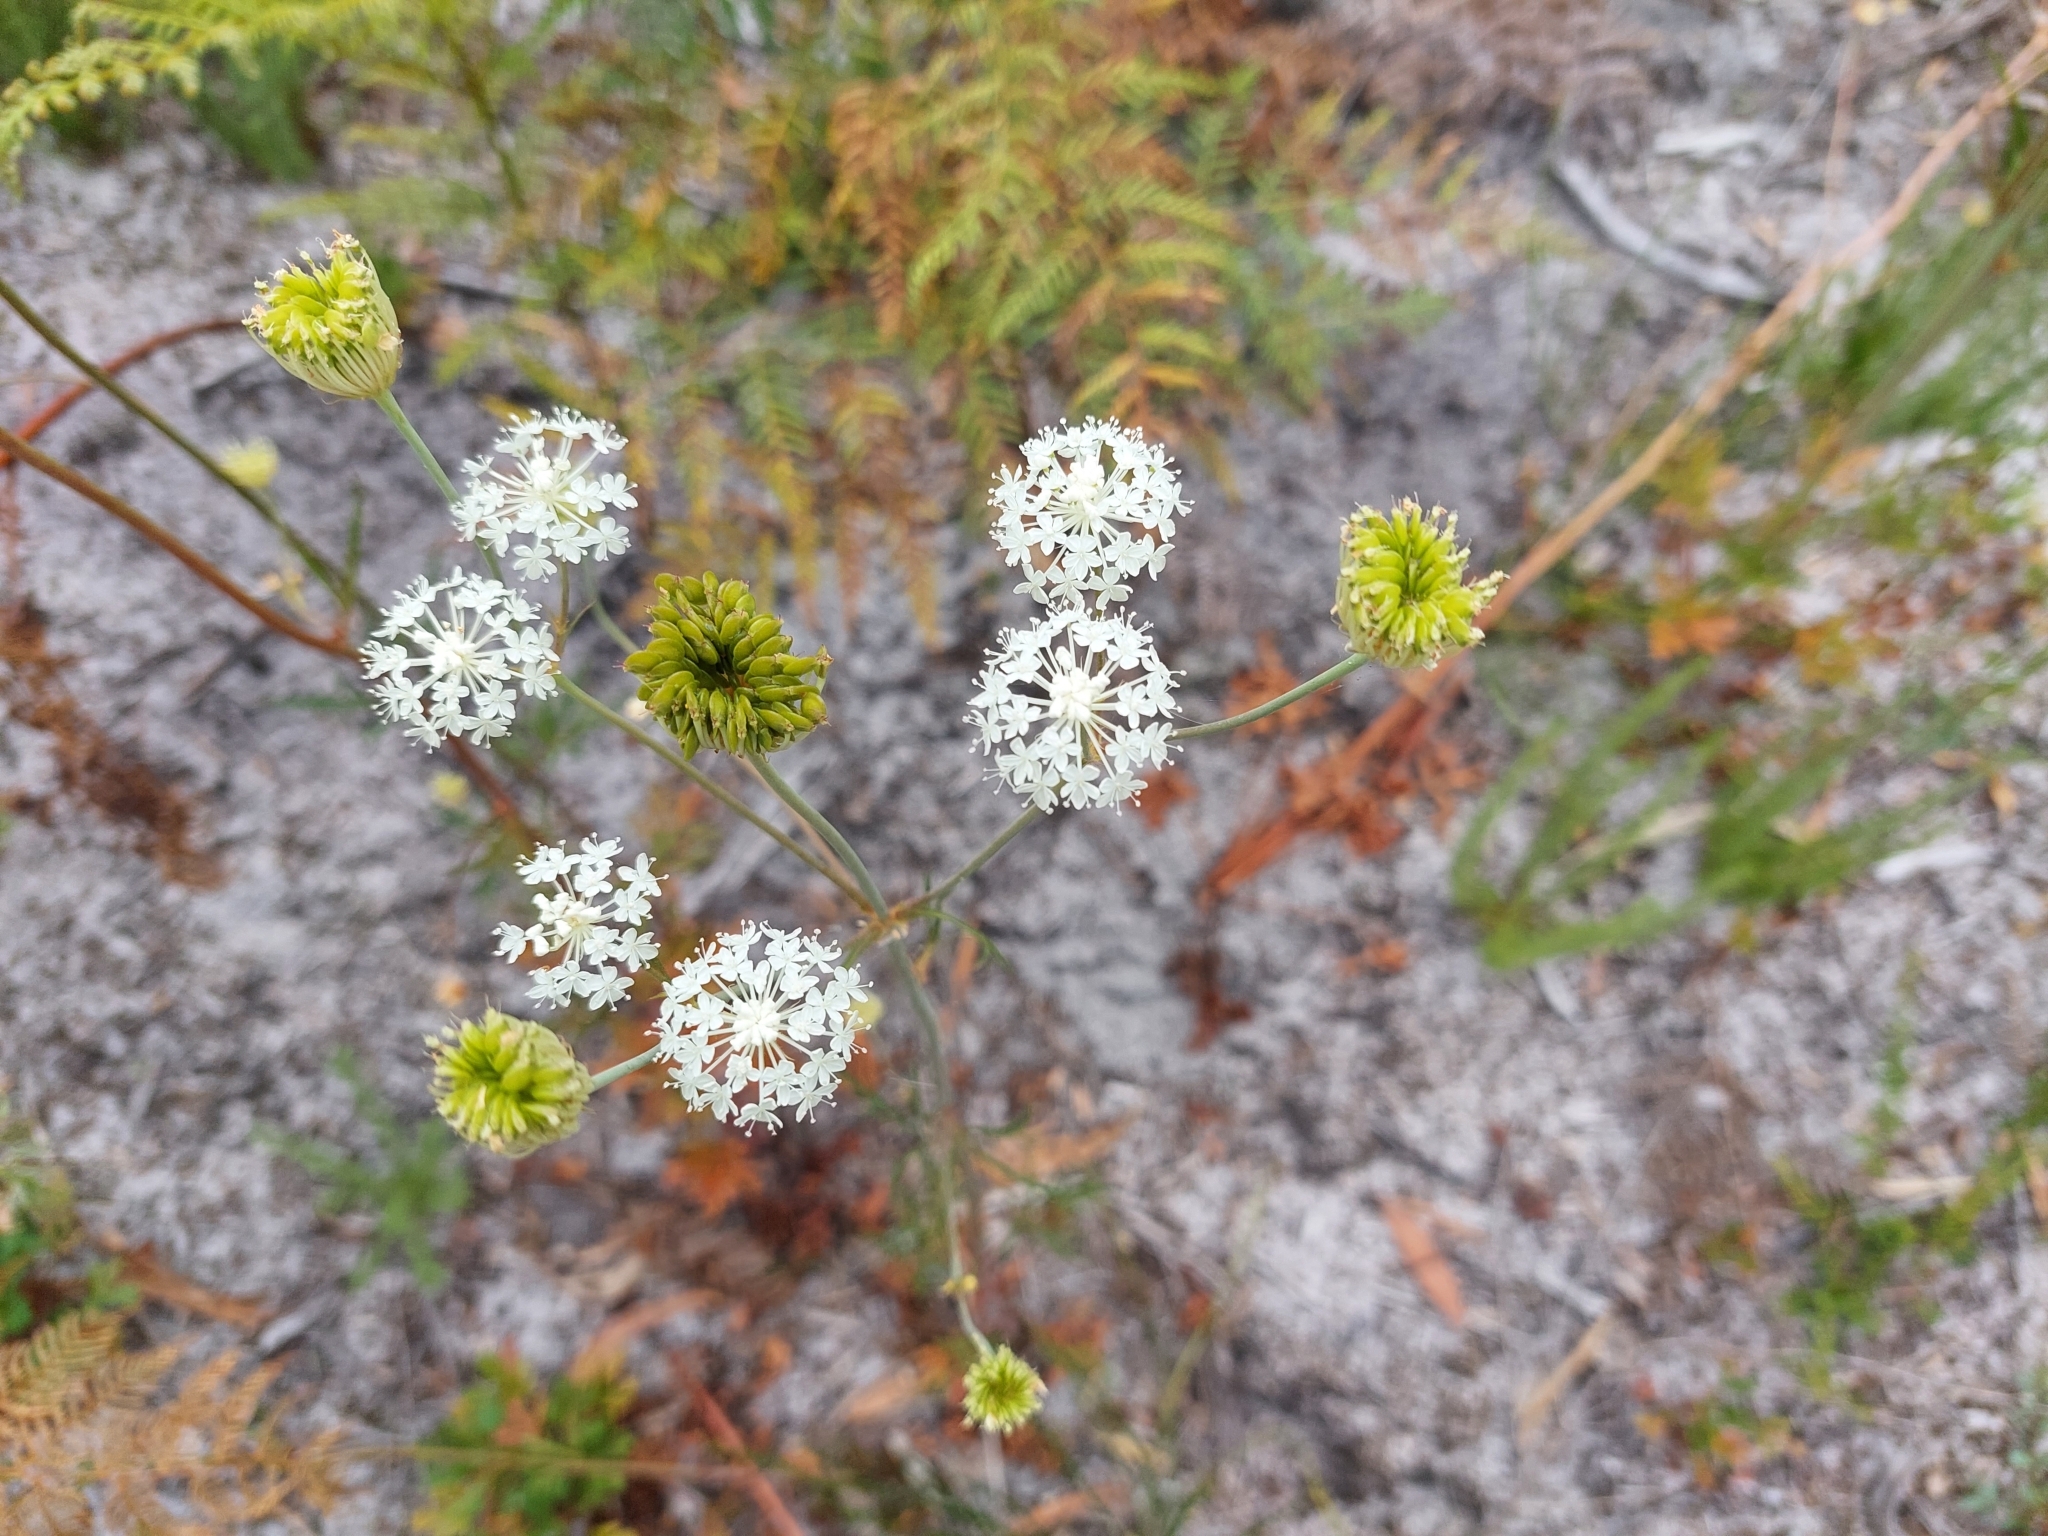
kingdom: Plantae
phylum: Tracheophyta
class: Magnoliopsida
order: Apiales
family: Araliaceae
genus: Trachymene
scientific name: Trachymene composita
